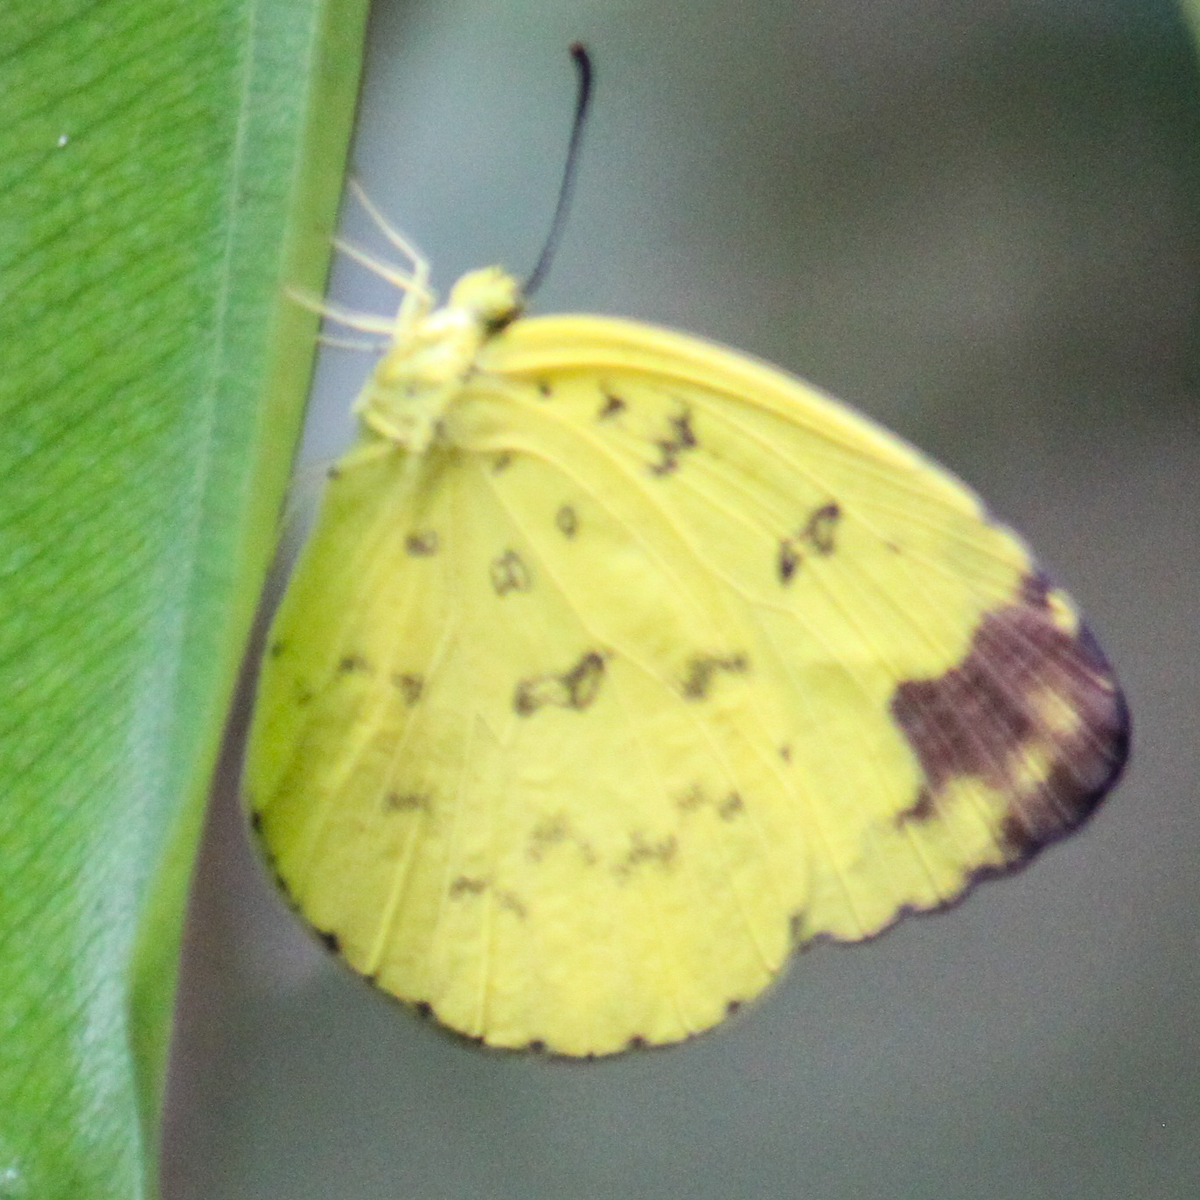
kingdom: Animalia
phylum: Arthropoda
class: Insecta
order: Lepidoptera
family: Pieridae
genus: Eurema
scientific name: Eurema blanda
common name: Three-spot grass yellow
